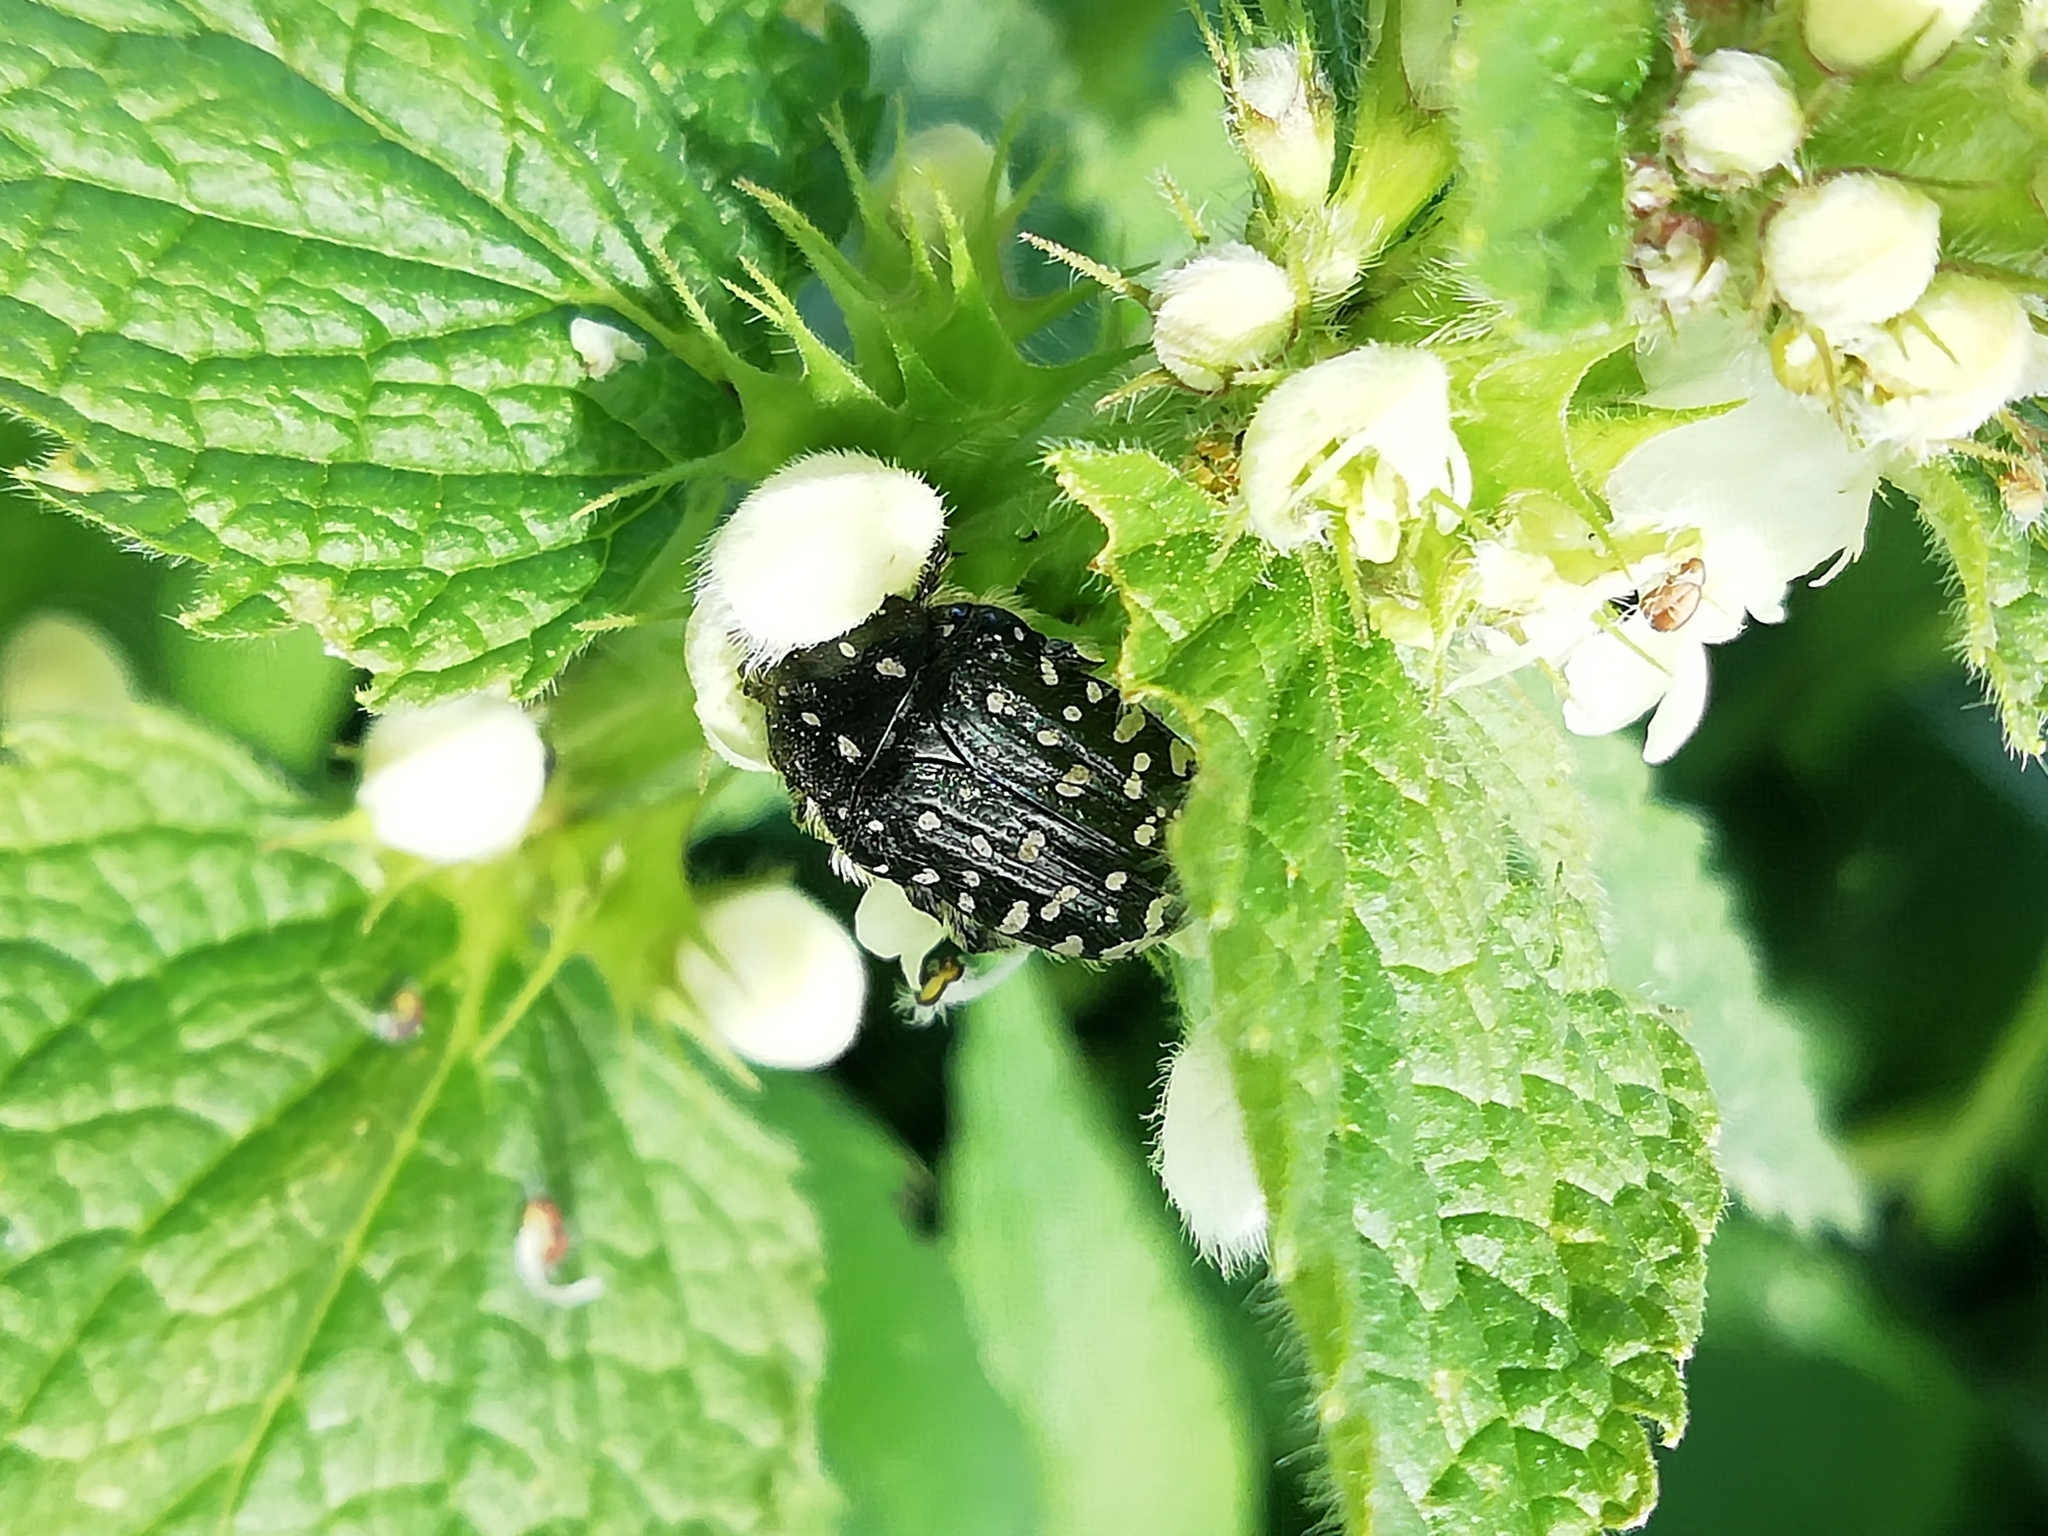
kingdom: Animalia
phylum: Arthropoda
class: Insecta
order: Coleoptera
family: Scarabaeidae
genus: Oxythyrea
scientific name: Oxythyrea funesta
